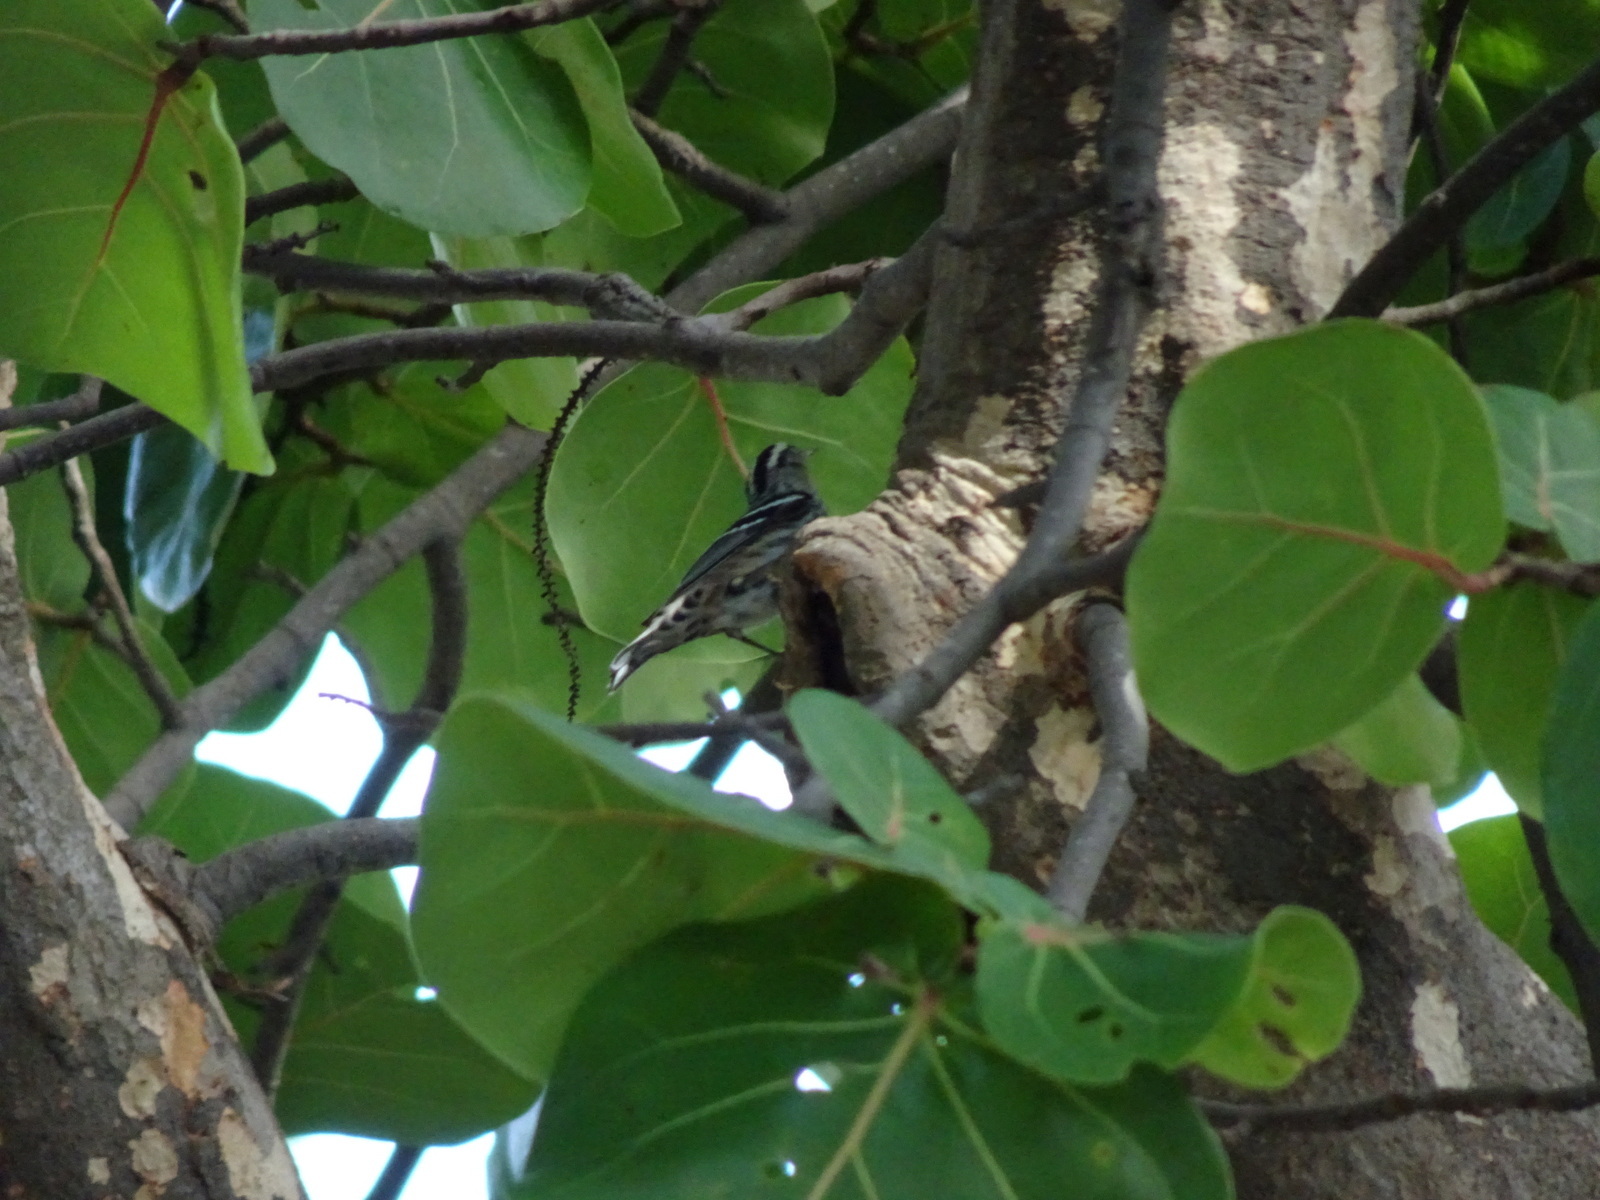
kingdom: Animalia
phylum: Chordata
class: Aves
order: Passeriformes
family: Parulidae
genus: Mniotilta
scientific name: Mniotilta varia
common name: Black-and-white warbler
